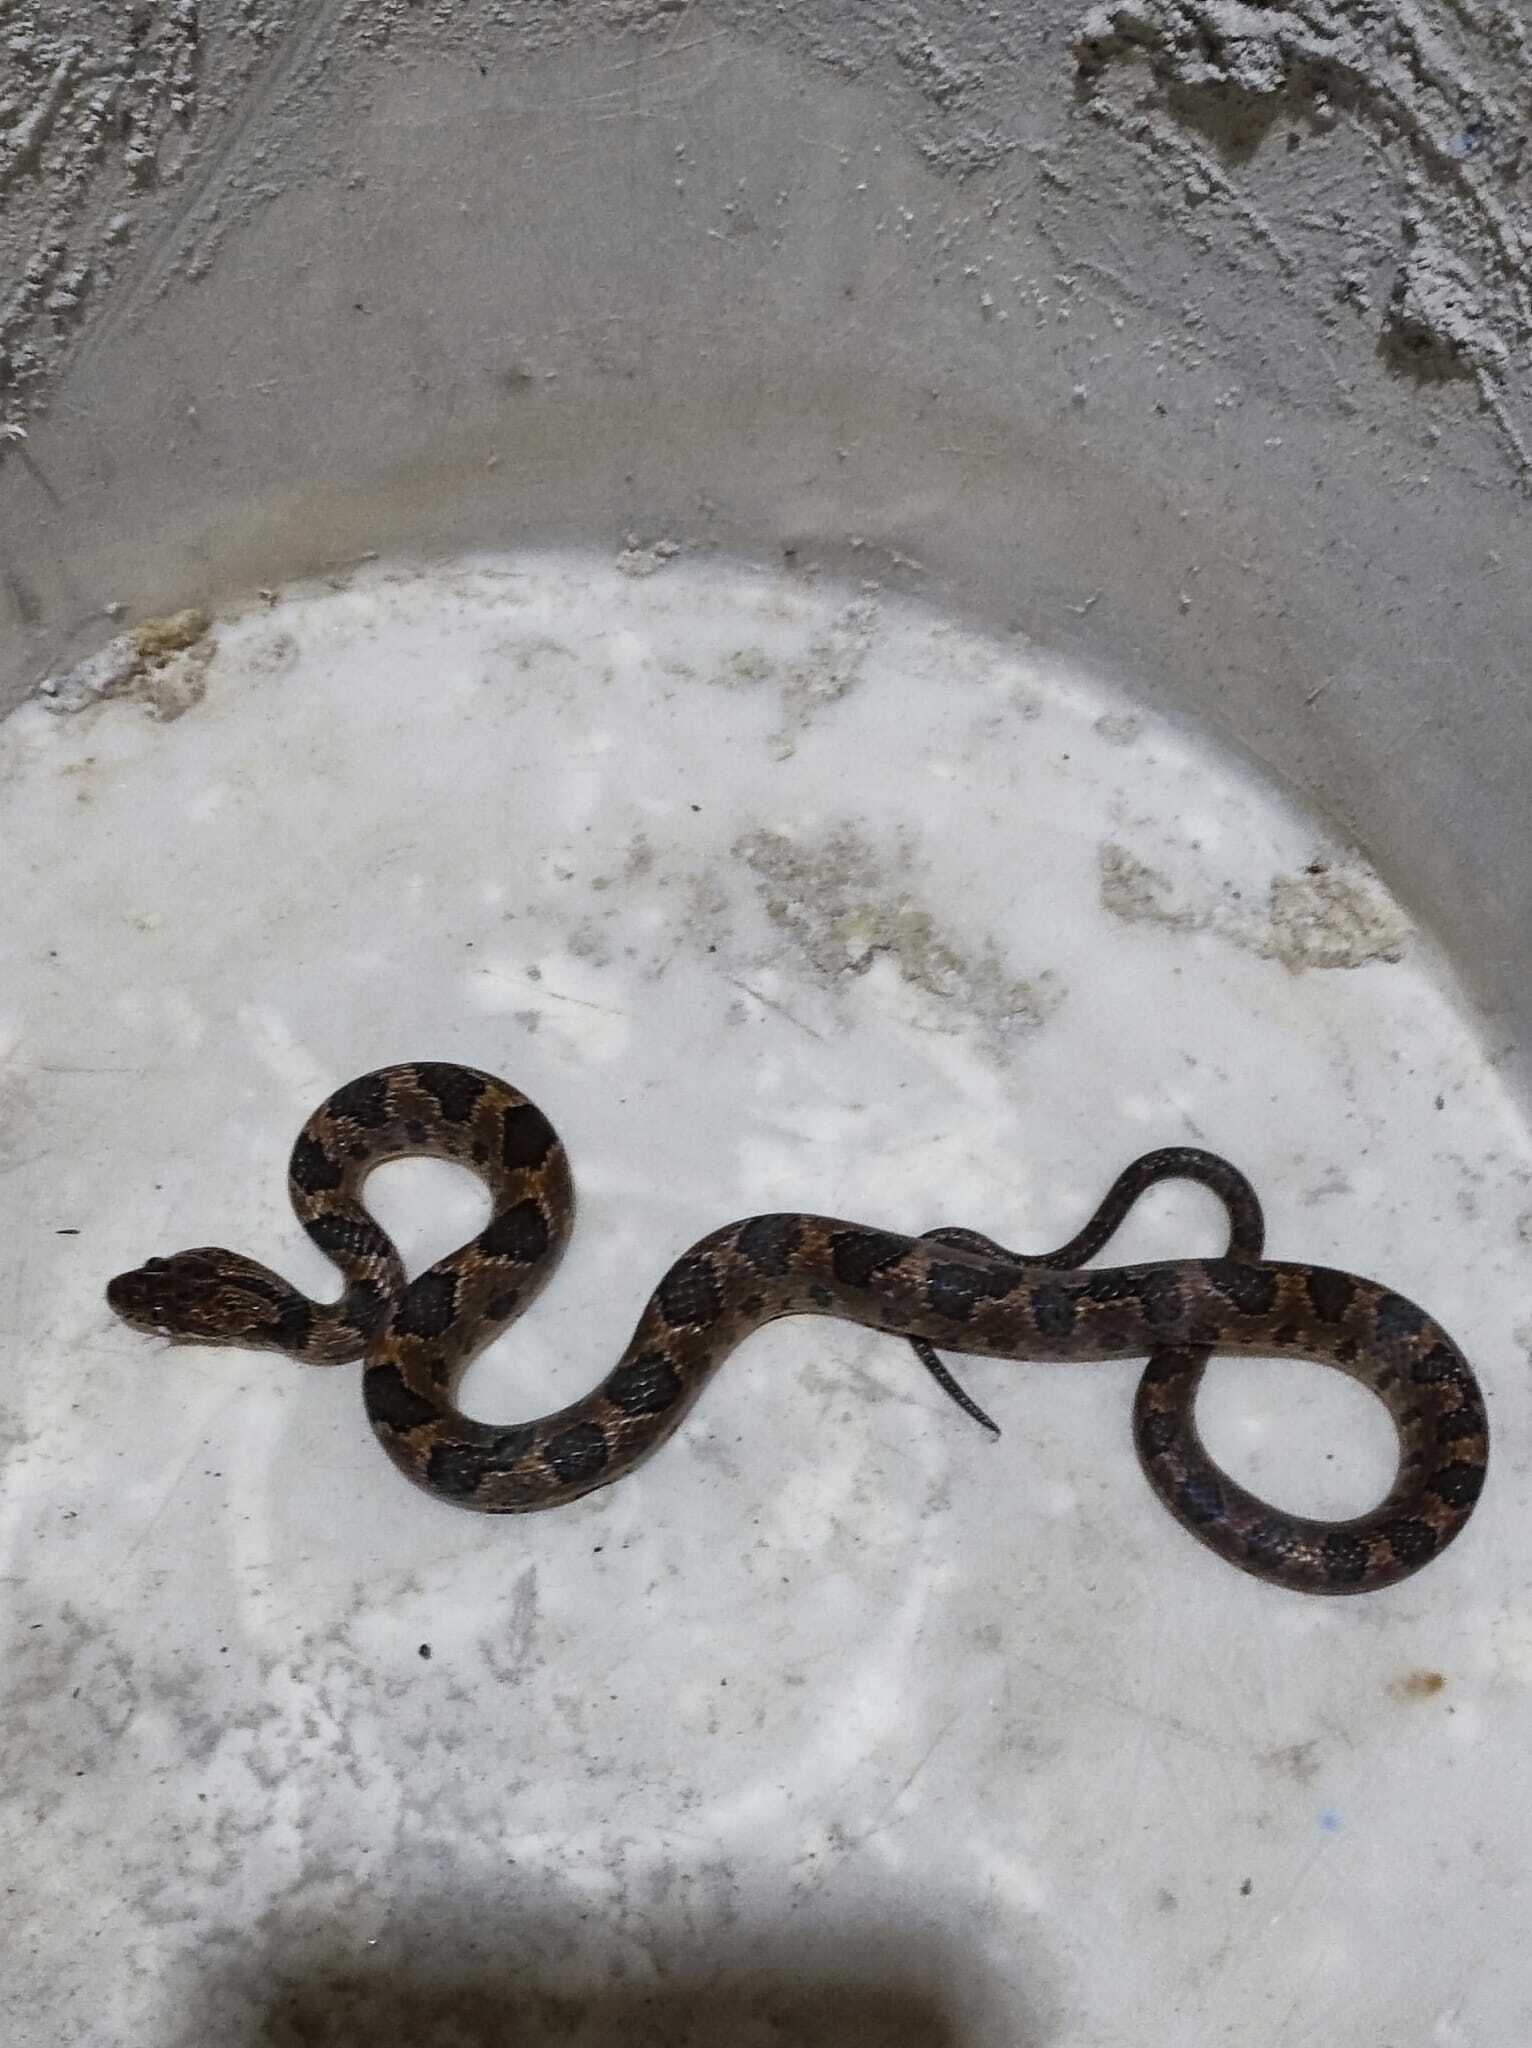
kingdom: Animalia
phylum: Chordata
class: Squamata
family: Colubridae
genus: Leptodeira
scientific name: Leptodeira rhombifera
